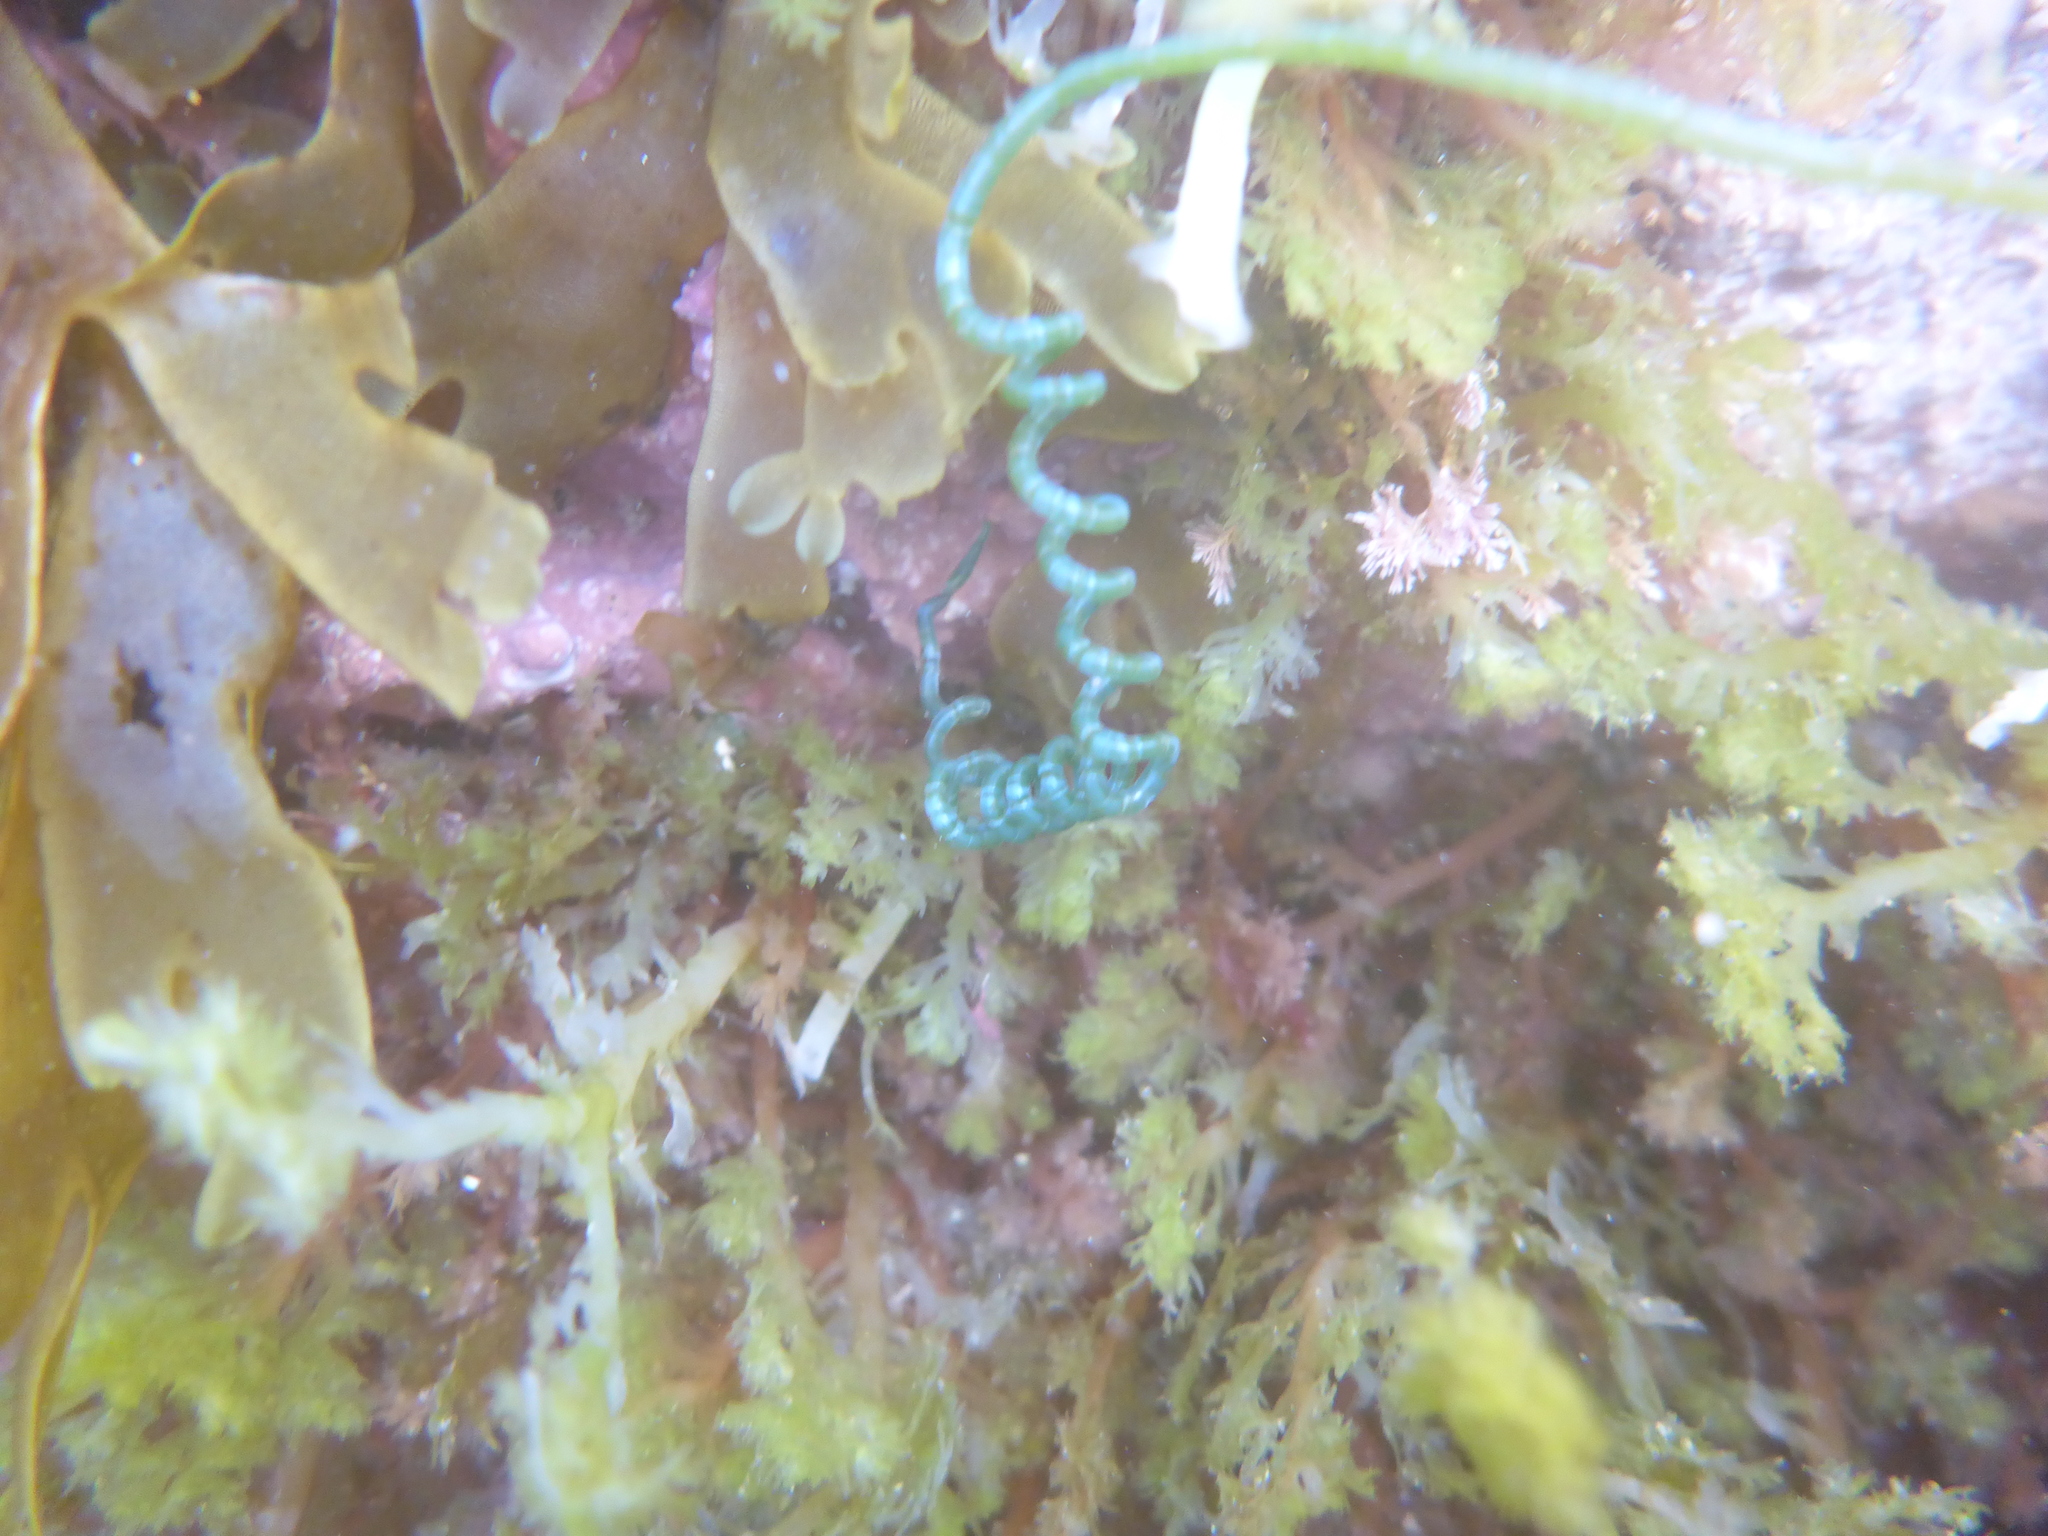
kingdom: Plantae
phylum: Chlorophyta
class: Ulvophyceae
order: Cladophorales
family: Cladophoraceae
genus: Chaetomorpha
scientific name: Chaetomorpha spiralis
